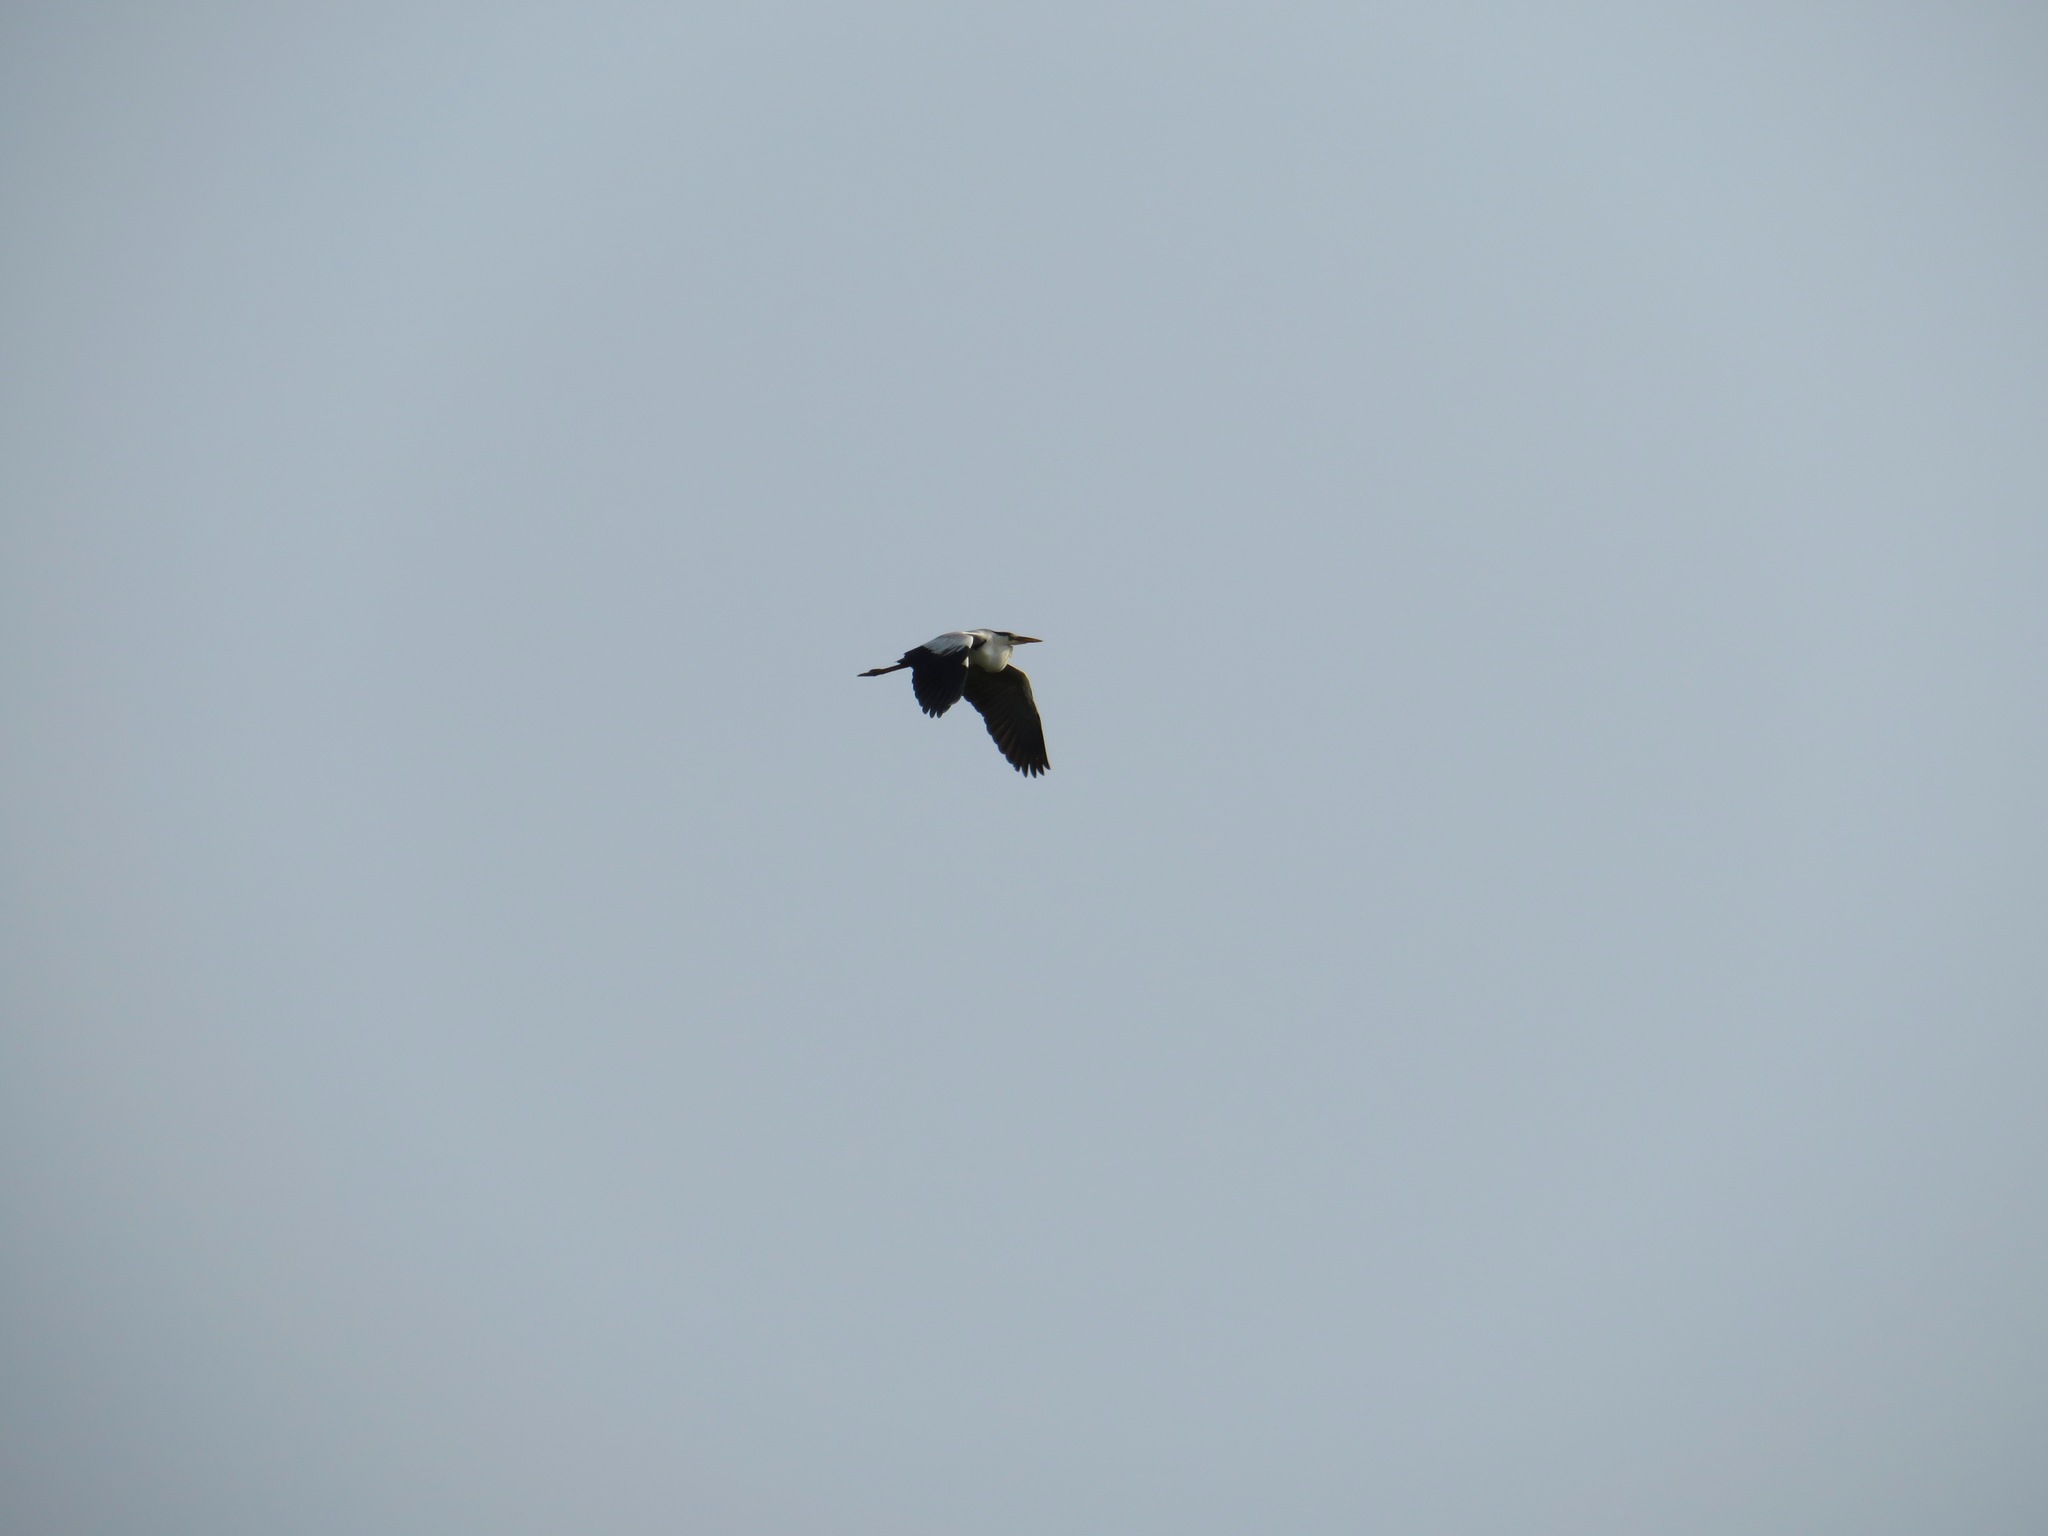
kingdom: Animalia
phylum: Chordata
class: Aves
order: Pelecaniformes
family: Ardeidae
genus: Ardea
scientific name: Ardea cinerea
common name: Grey heron
